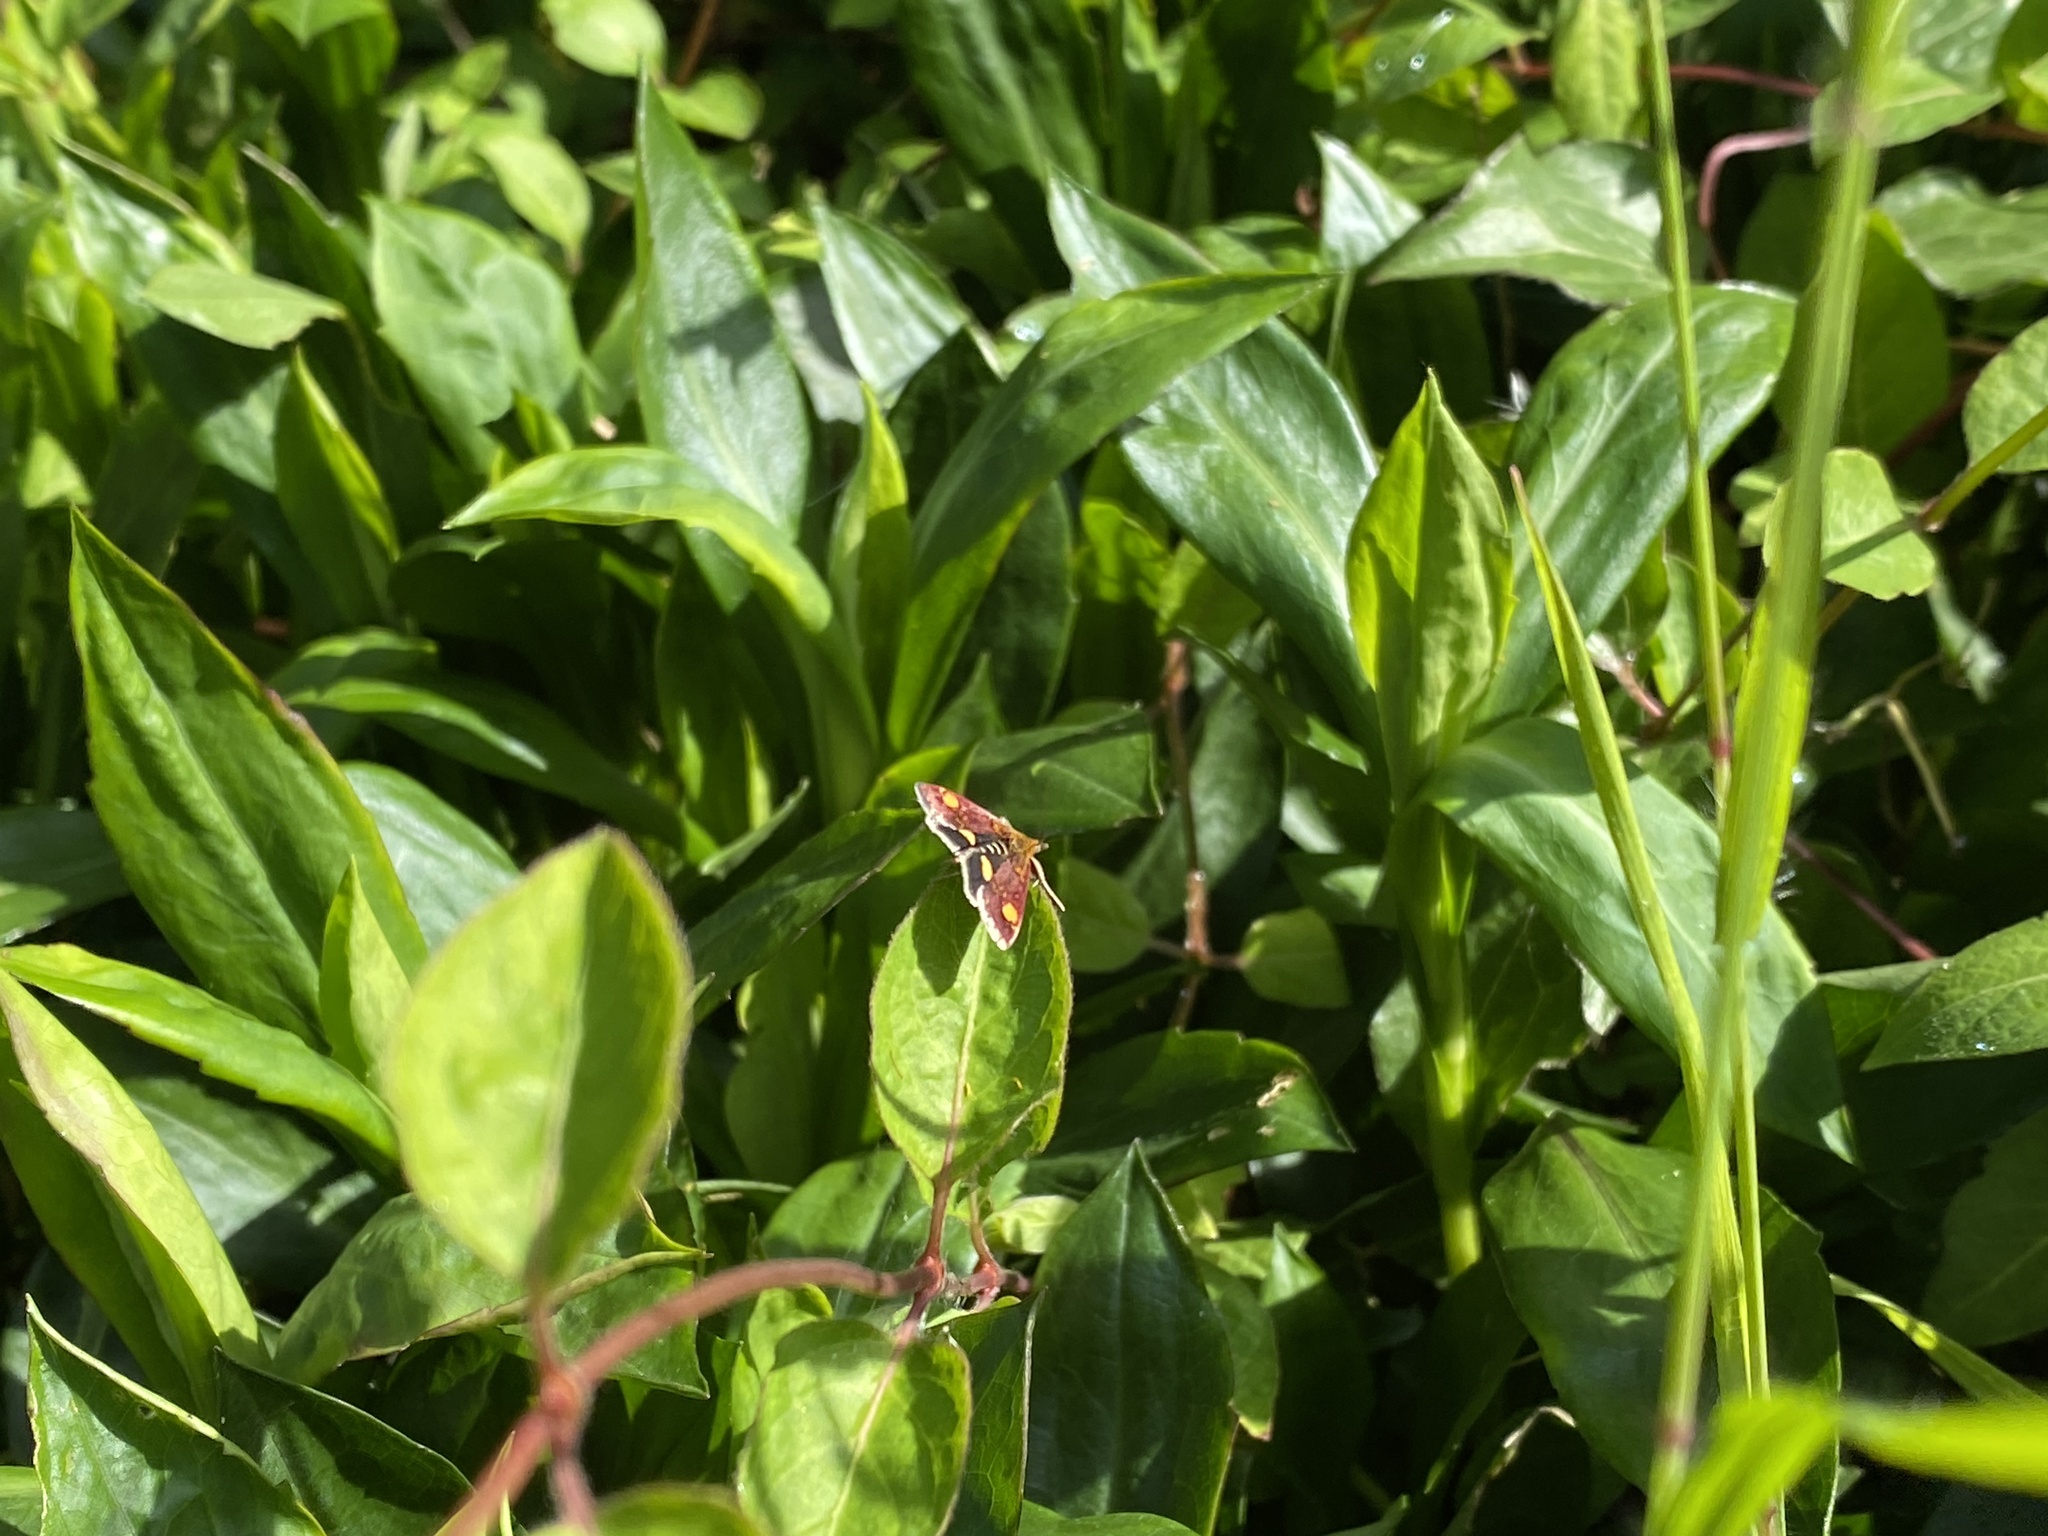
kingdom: Animalia
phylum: Arthropoda
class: Insecta
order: Lepidoptera
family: Crambidae
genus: Pyrausta
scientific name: Pyrausta aurata
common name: Small purple & gold
